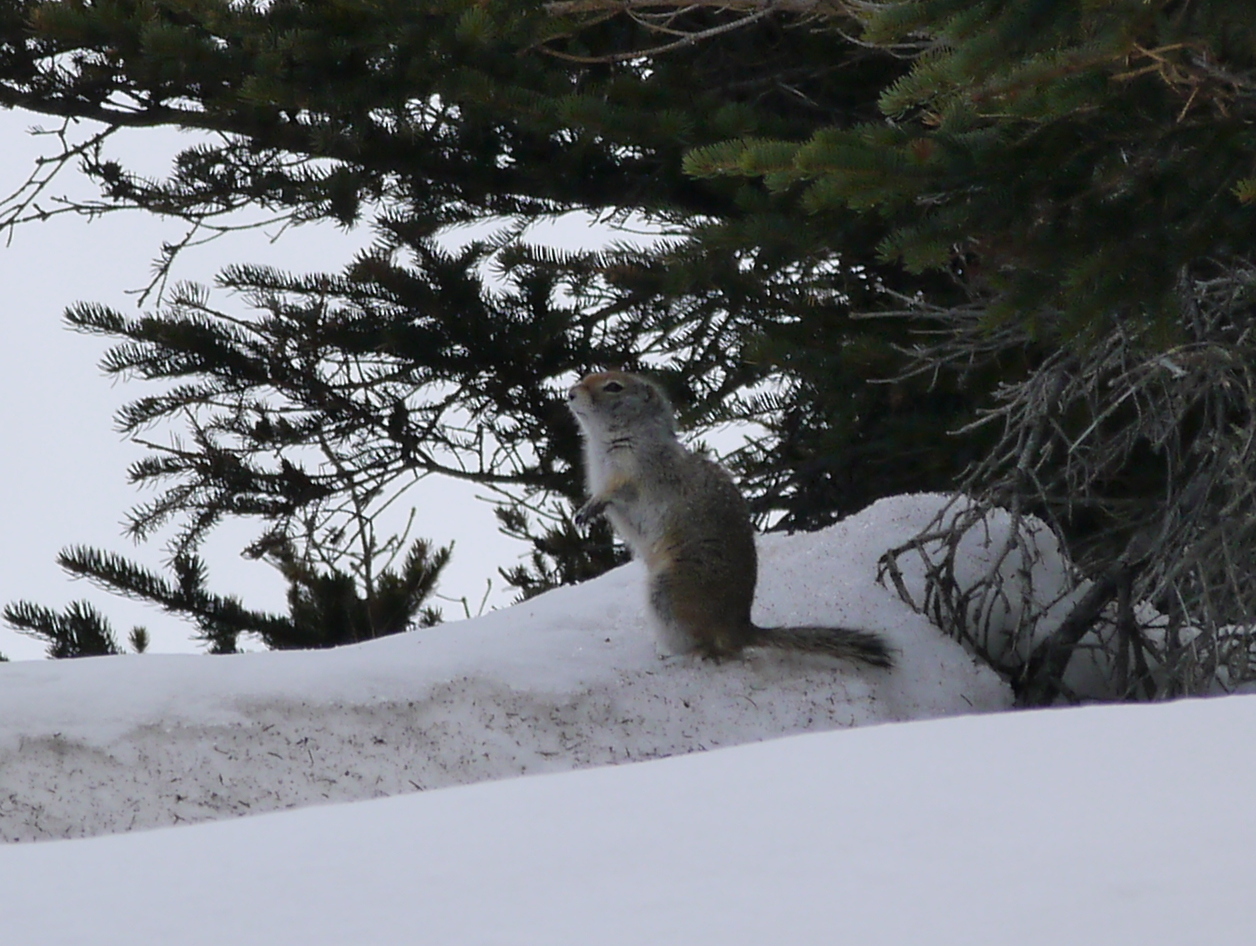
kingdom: Animalia
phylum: Chordata
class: Mammalia
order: Rodentia
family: Sciuridae
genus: Urocitellus
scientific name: Urocitellus parryii
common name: Arctic ground squirrel
